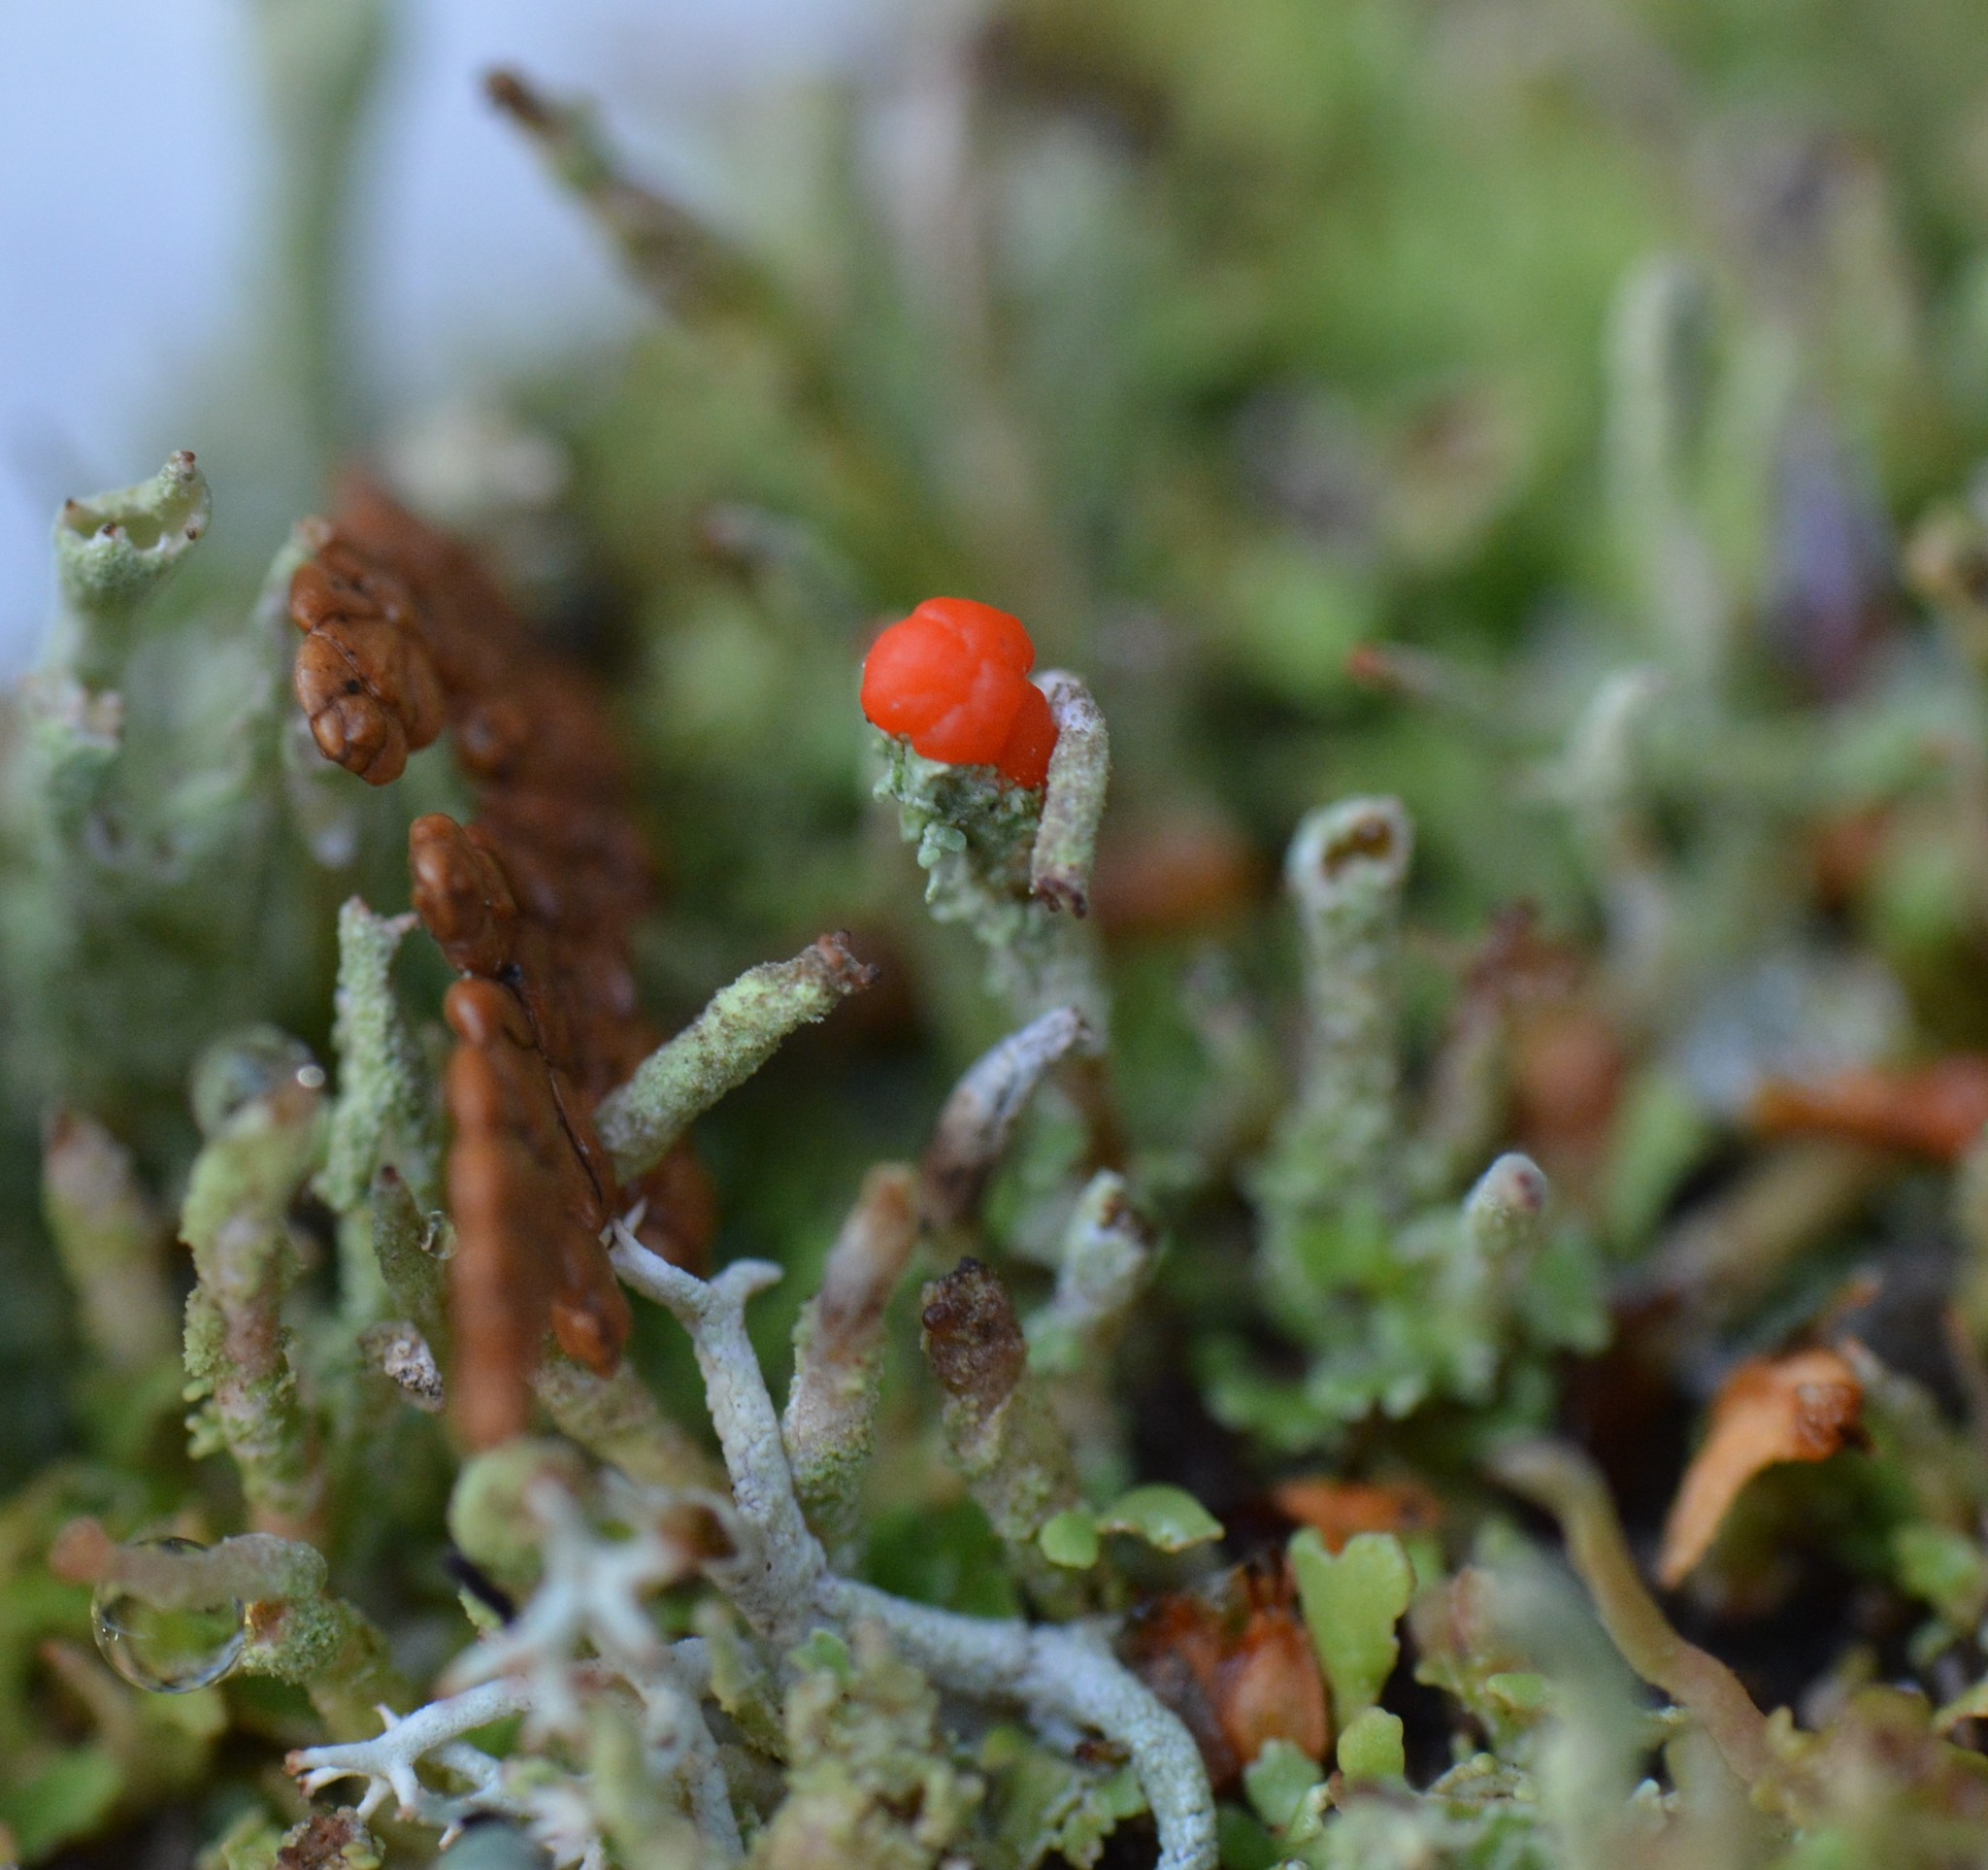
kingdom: Fungi
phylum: Ascomycota
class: Lecanoromycetes
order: Lecanorales
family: Cladoniaceae
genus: Cladonia
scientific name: Cladonia macilenta
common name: Lipstick powderhorn
